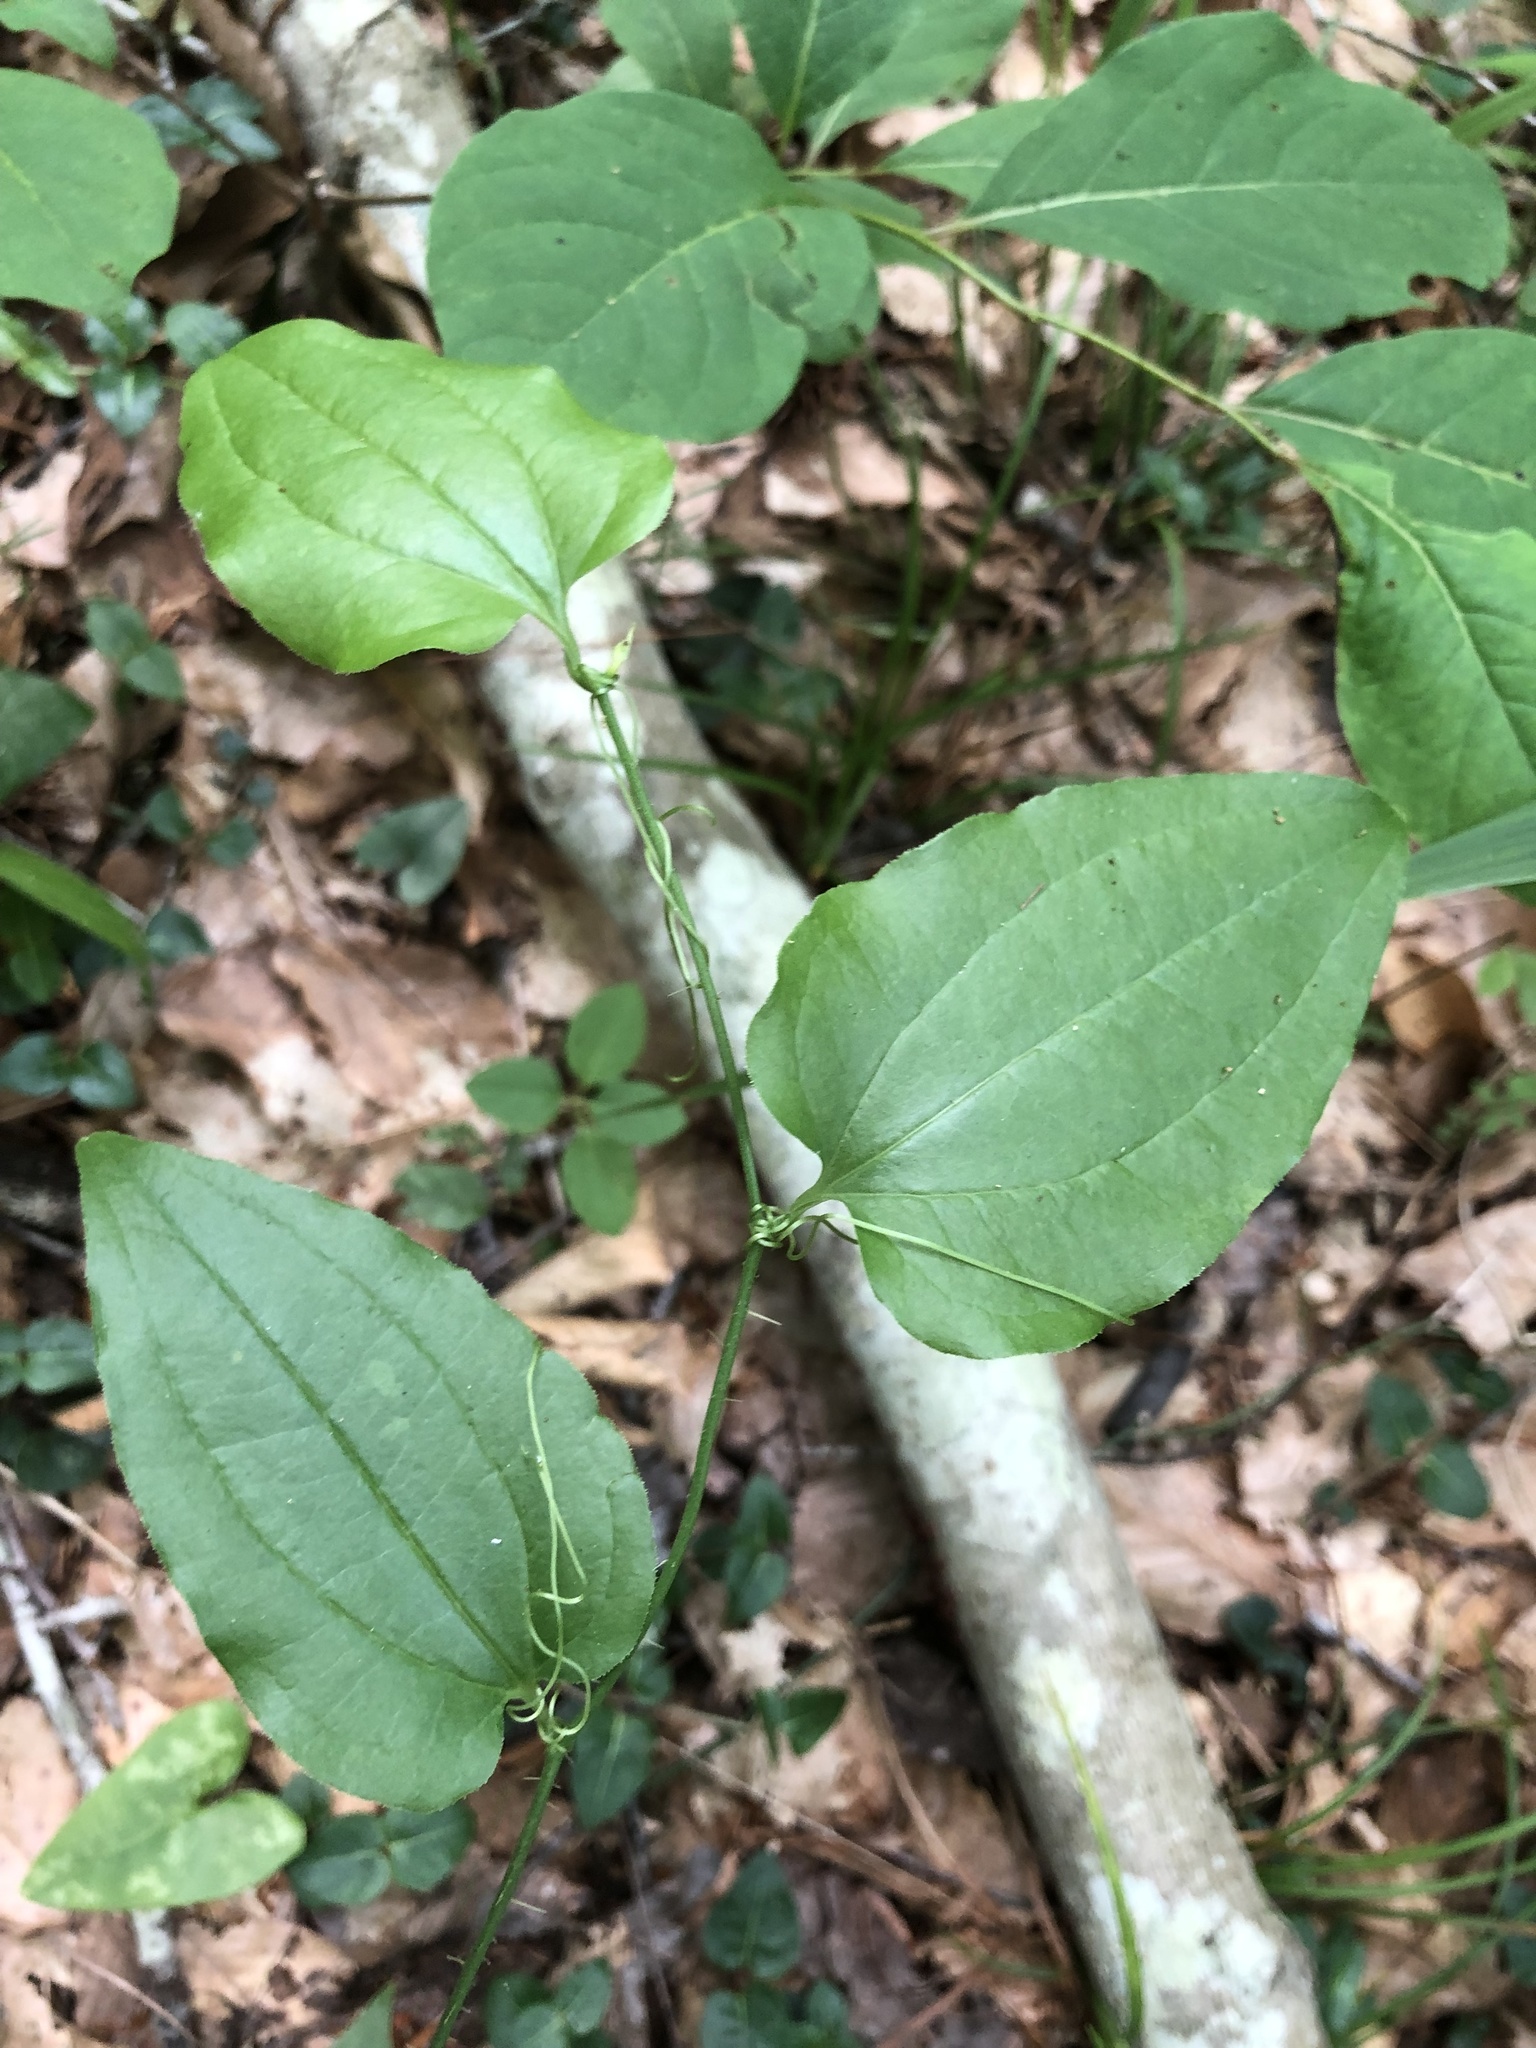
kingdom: Plantae
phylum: Tracheophyta
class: Liliopsida
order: Liliales
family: Smilacaceae
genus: Smilax
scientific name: Smilax tamnoides
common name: Hellfetter
